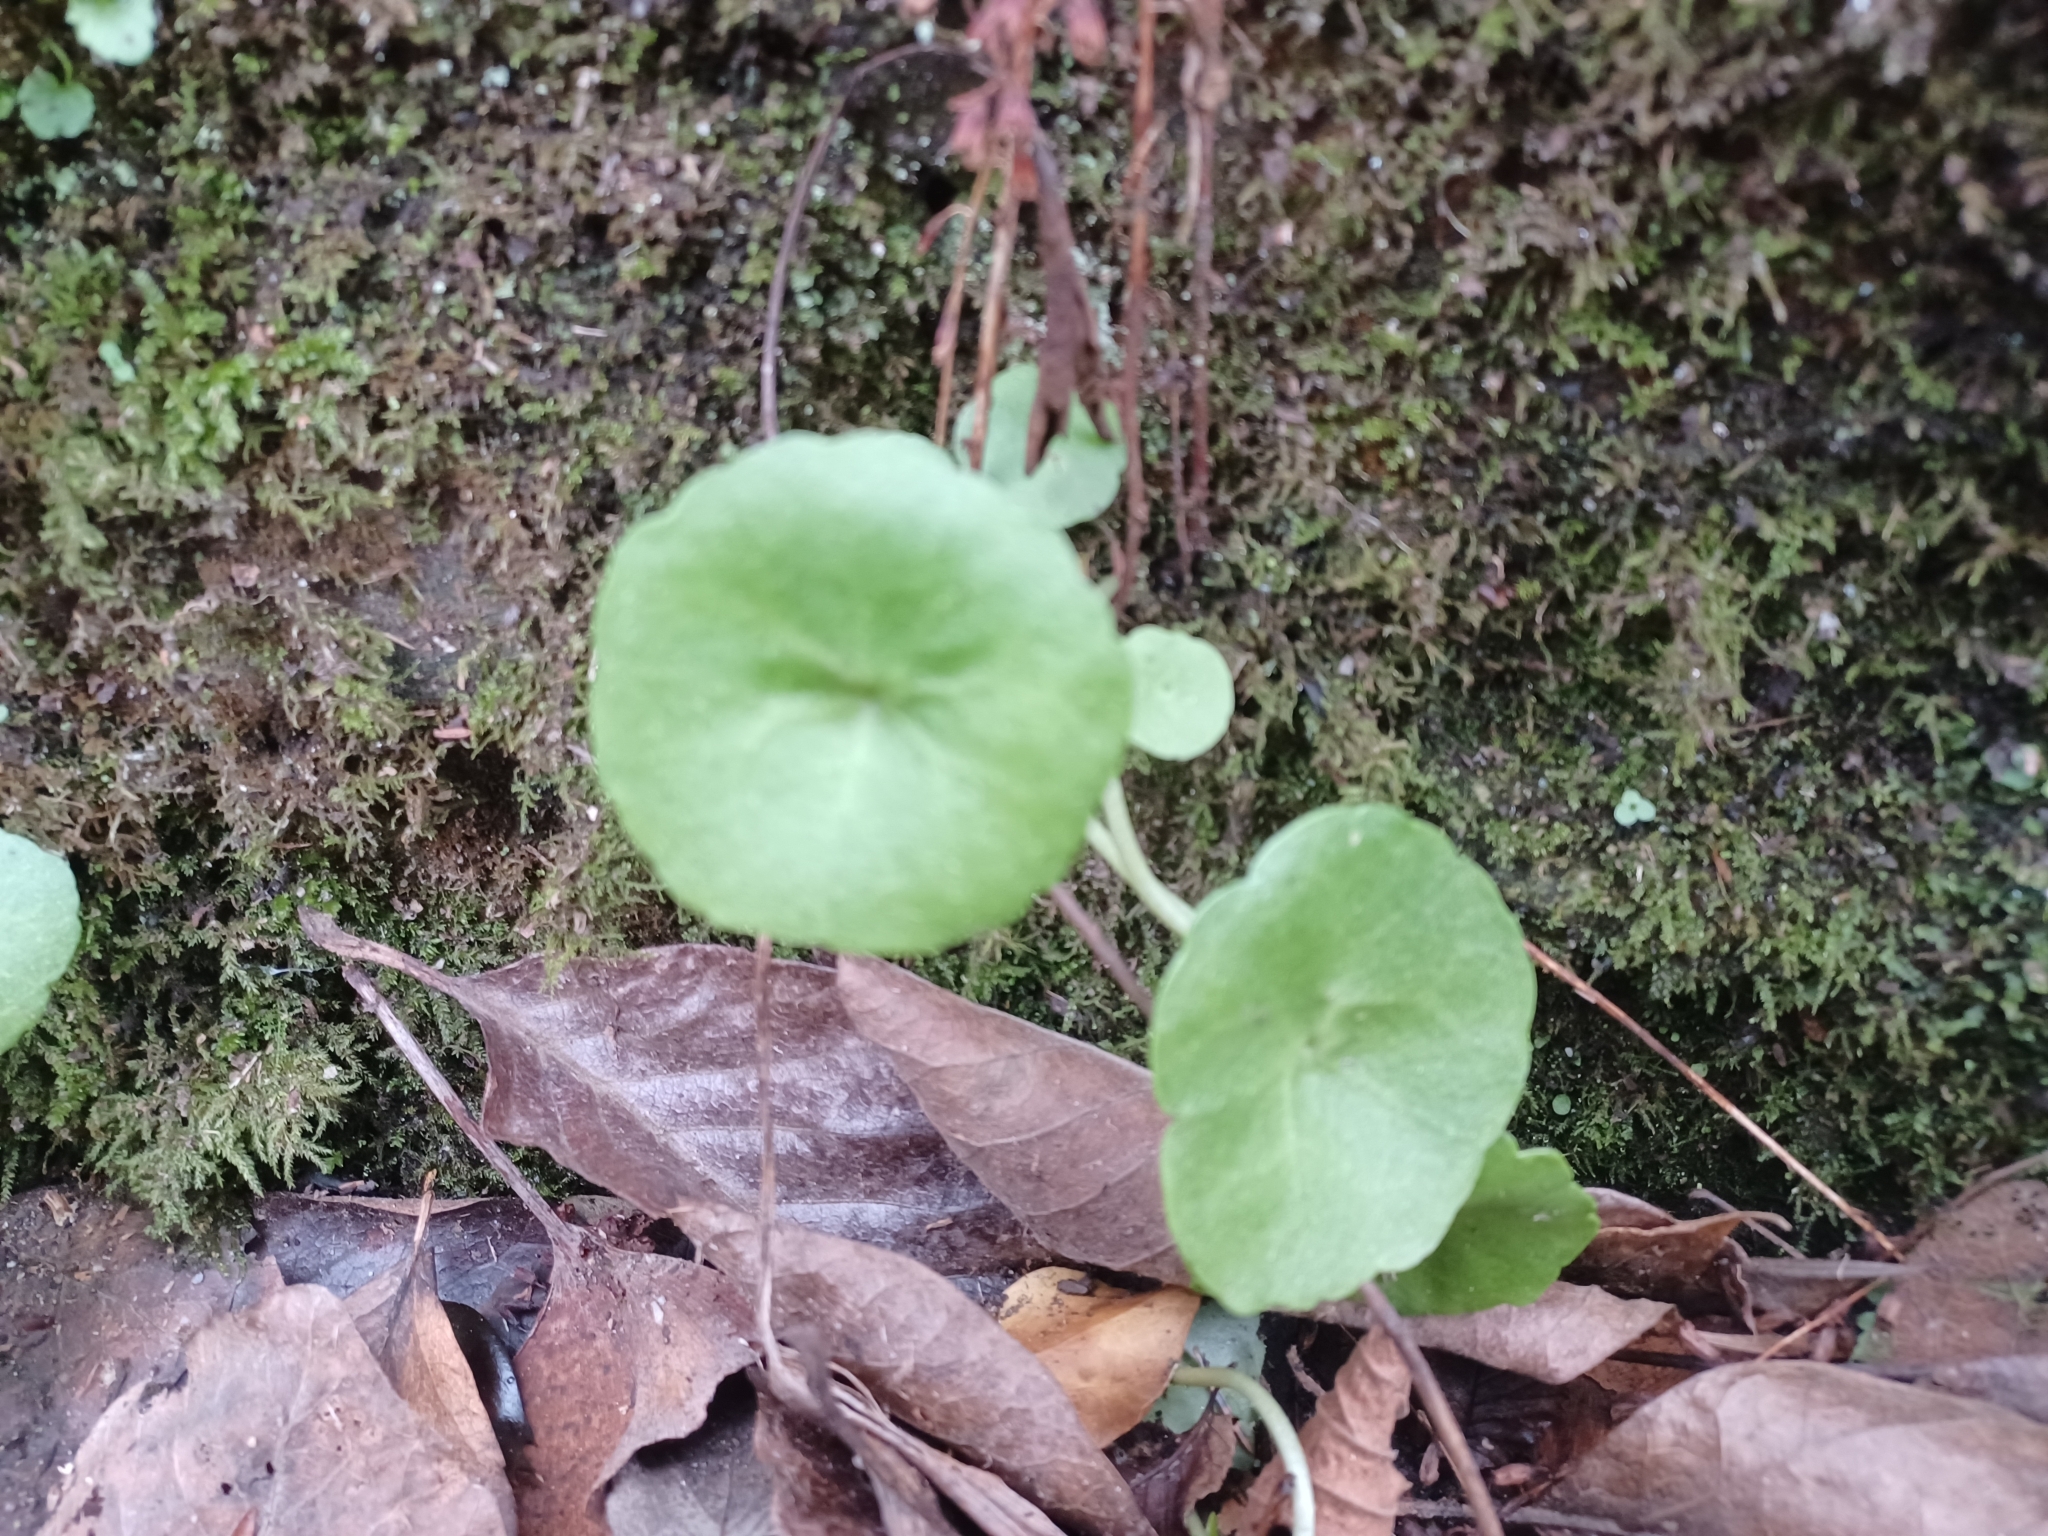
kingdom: Plantae
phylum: Tracheophyta
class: Magnoliopsida
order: Saxifragales
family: Crassulaceae
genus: Umbilicus
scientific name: Umbilicus rupestris
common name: Navelwort
